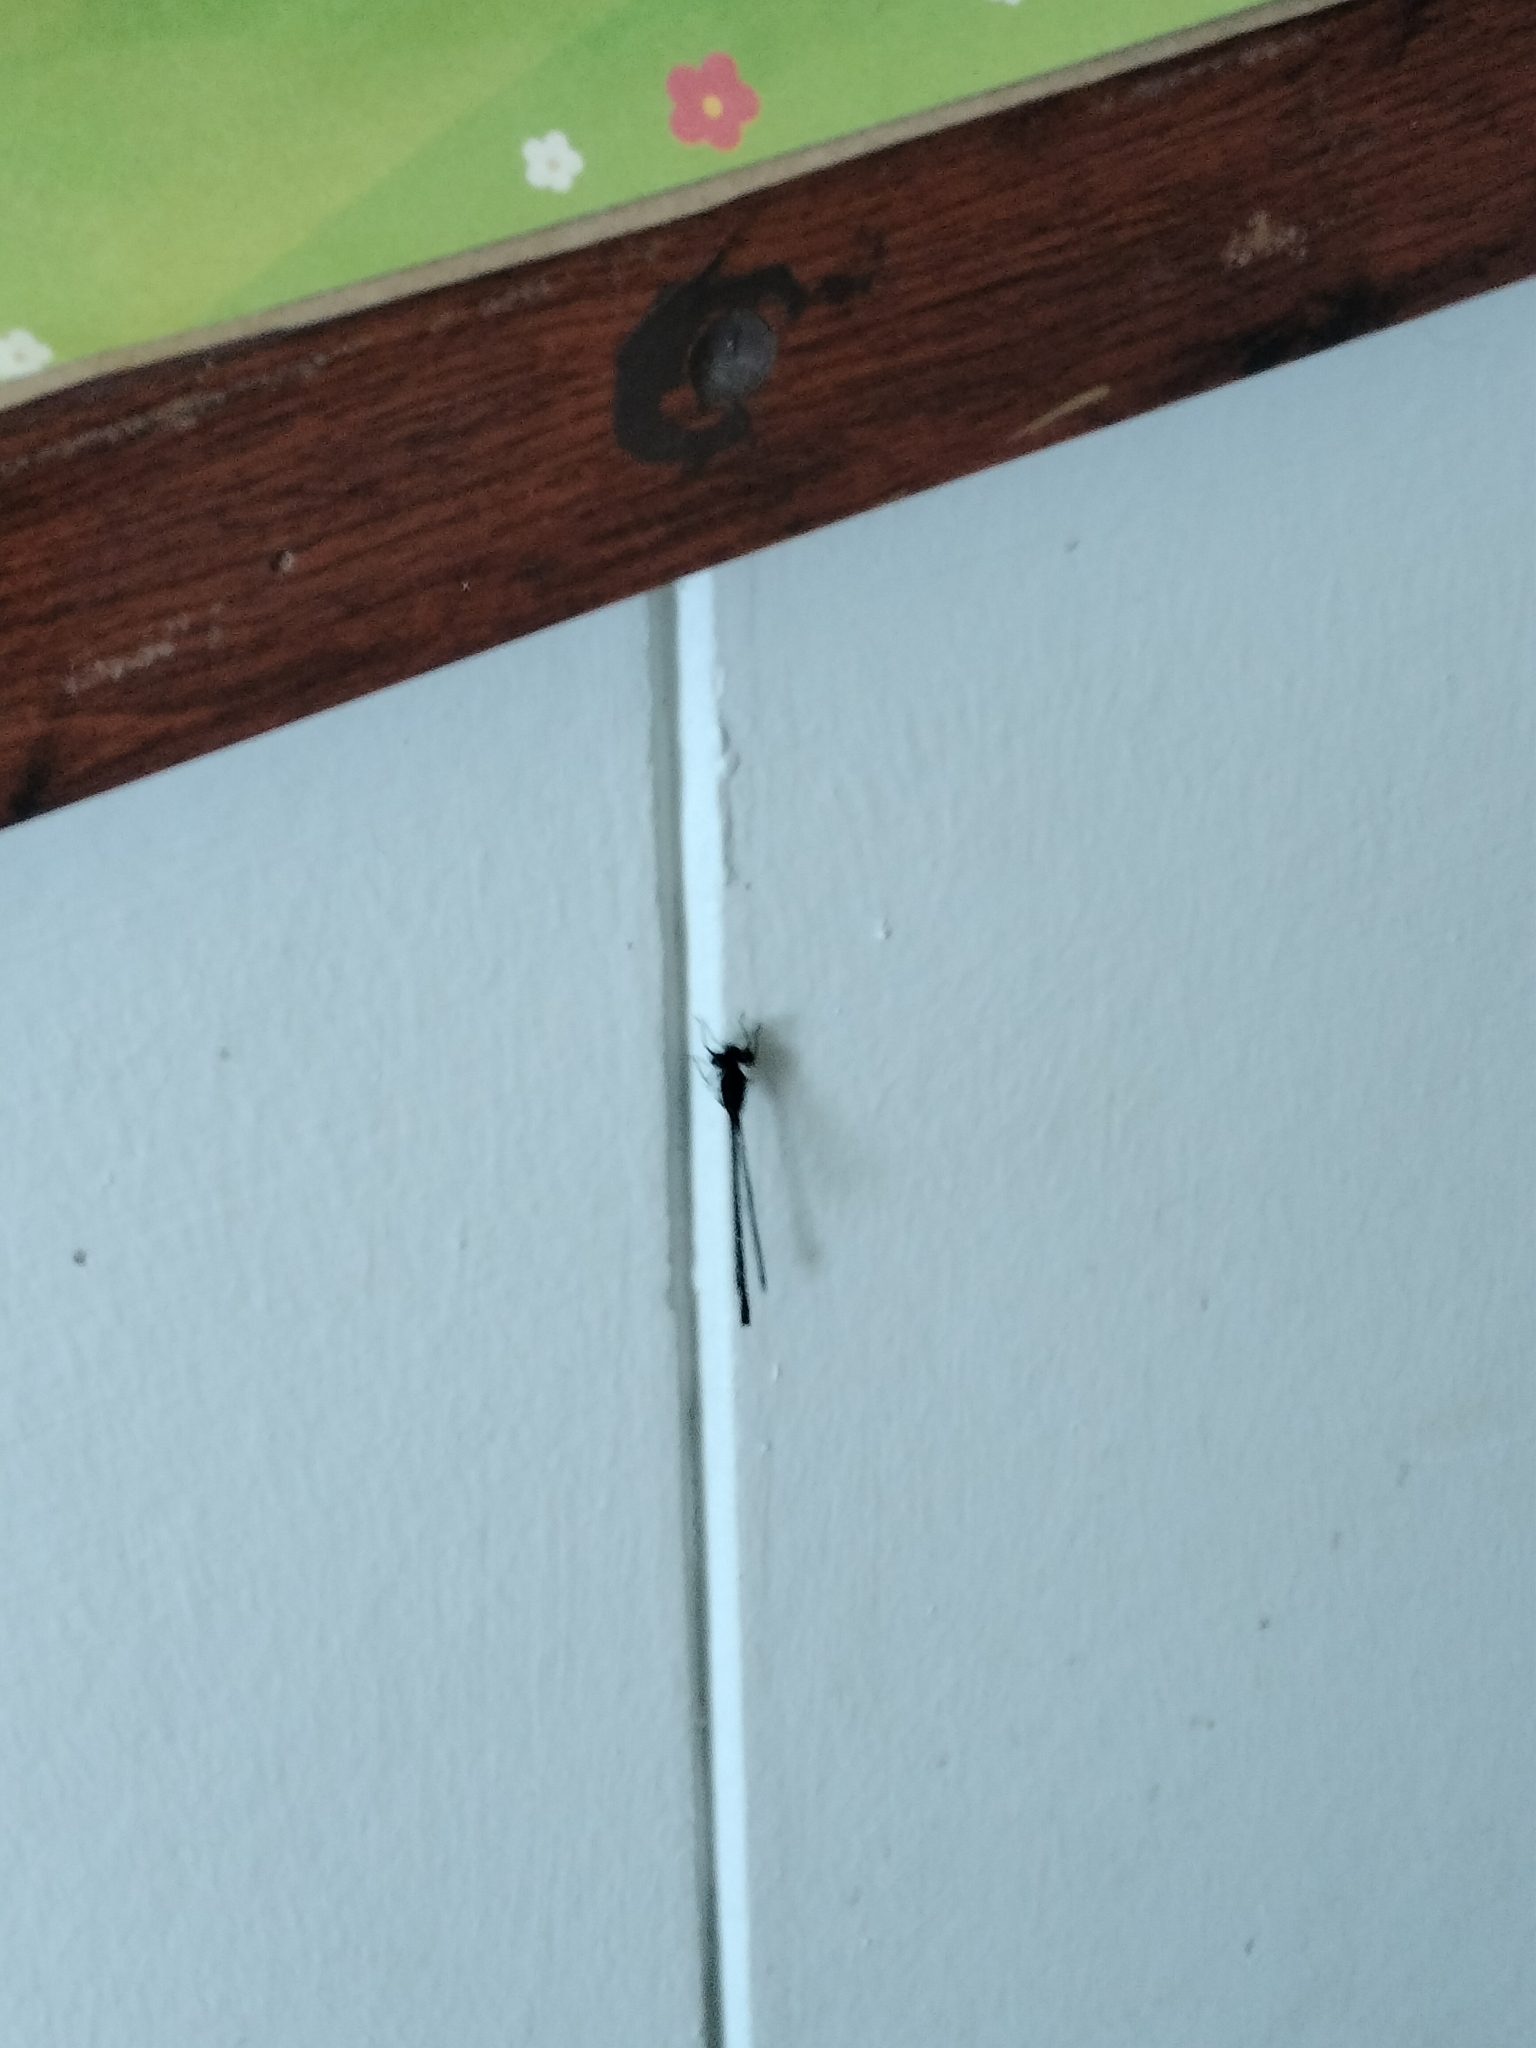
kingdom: Animalia
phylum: Arthropoda
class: Insecta
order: Odonata
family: Platycnemididae
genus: Onychargia
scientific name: Onychargia atrocyana
